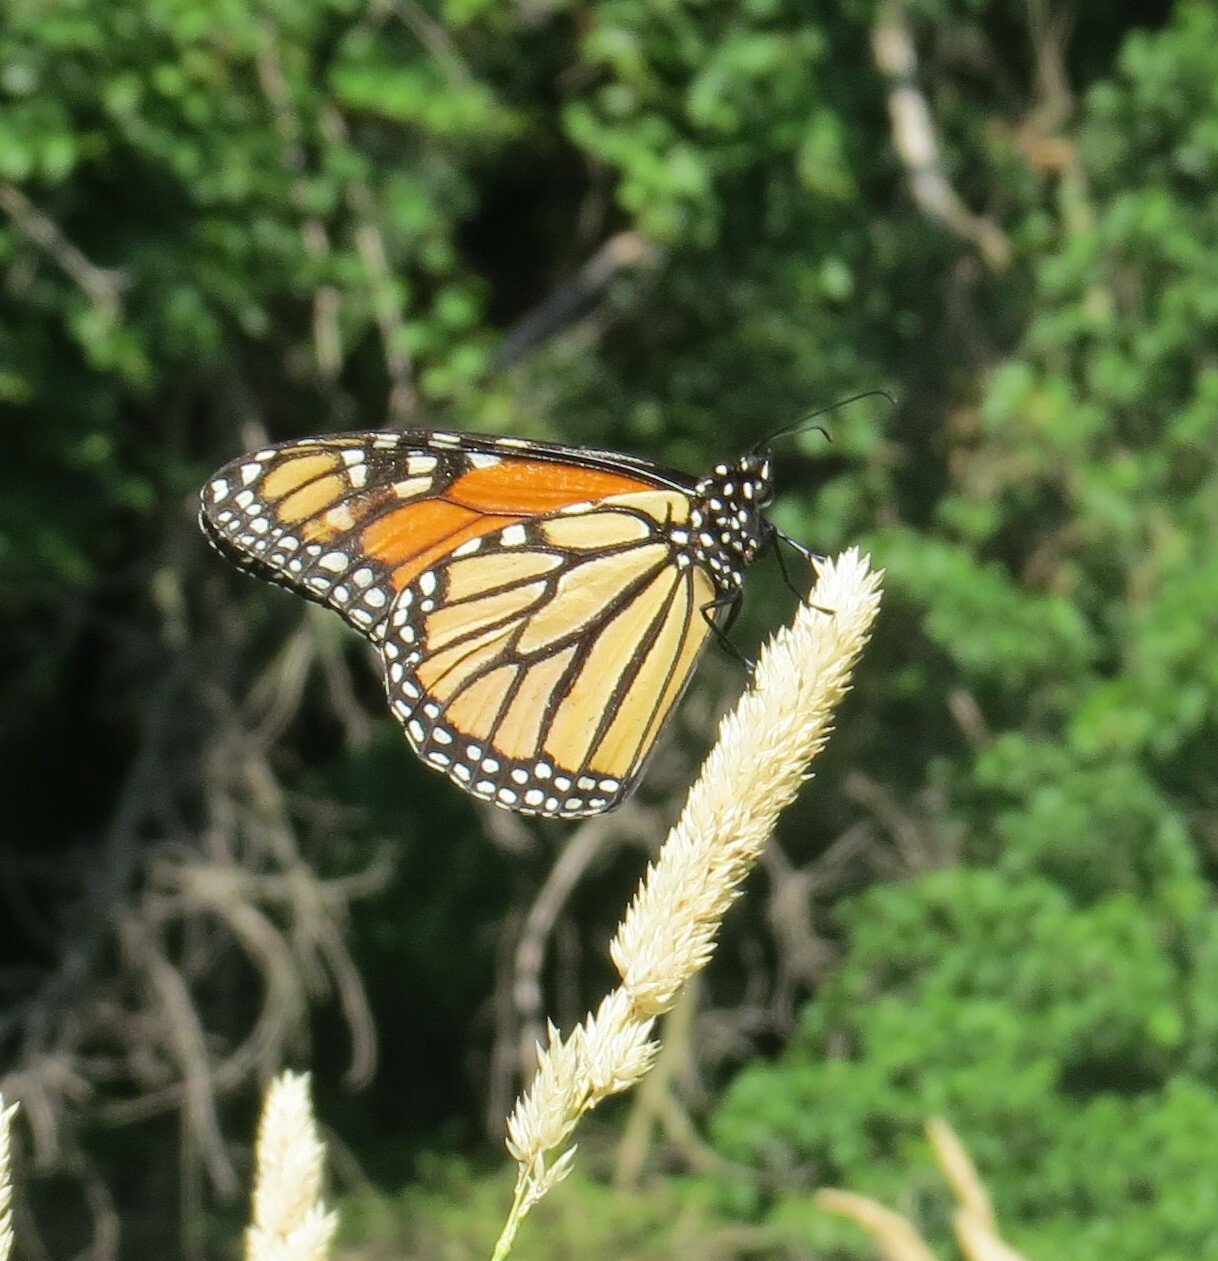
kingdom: Animalia
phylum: Arthropoda
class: Insecta
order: Lepidoptera
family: Nymphalidae
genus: Danaus
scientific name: Danaus plexippus
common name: Monarch
